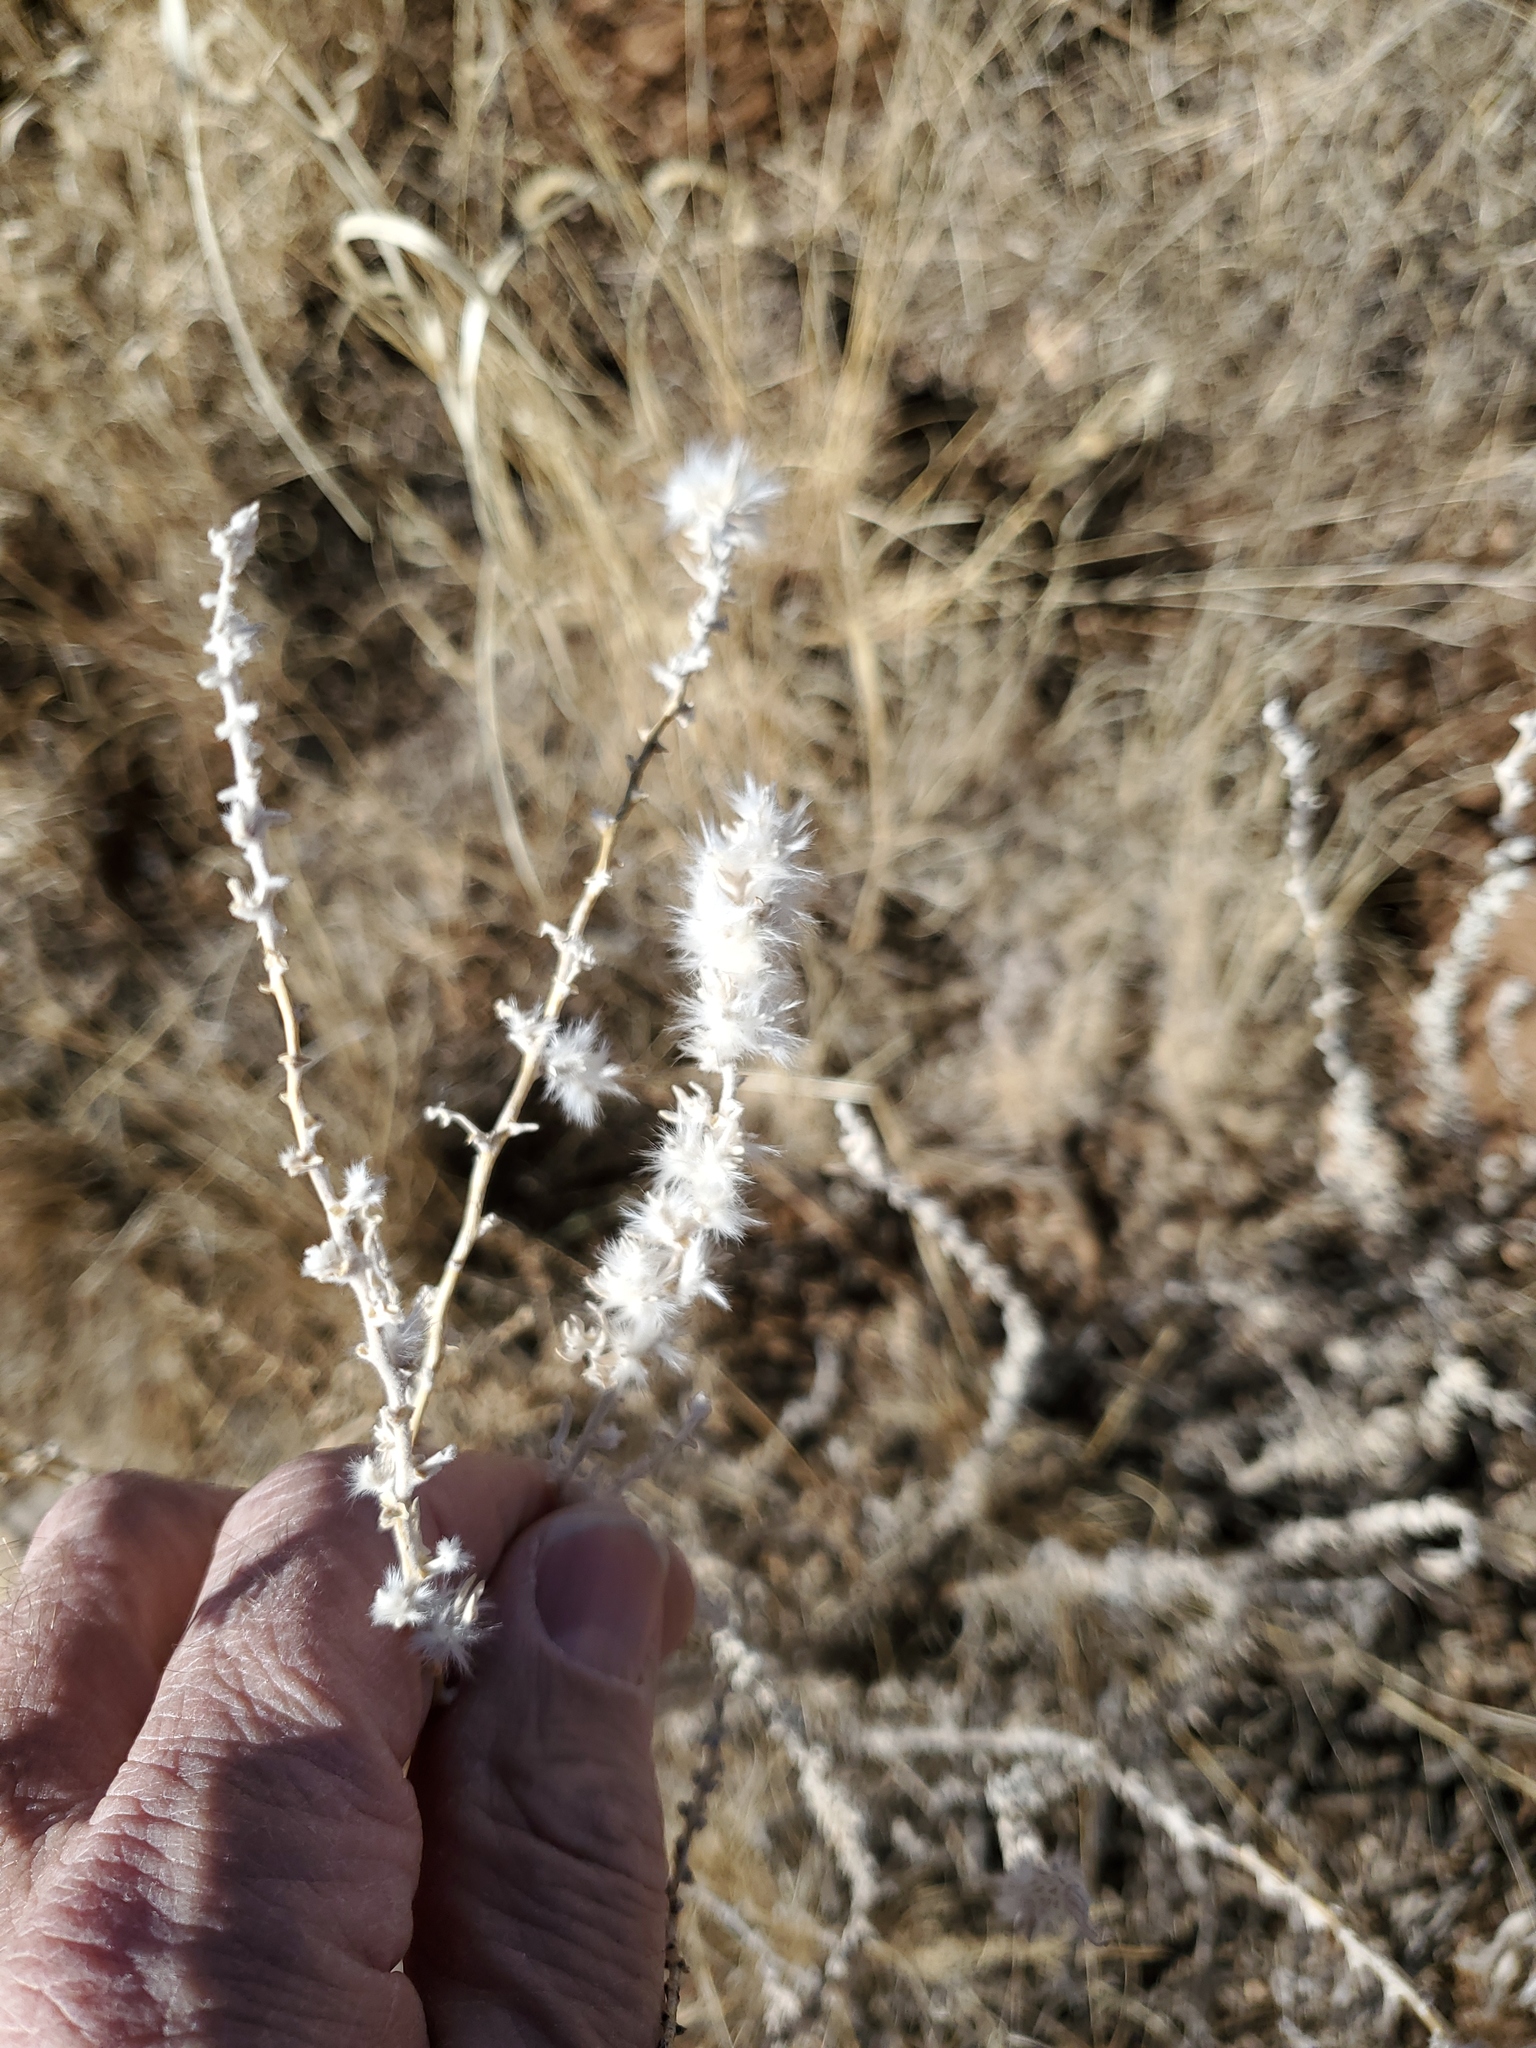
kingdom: Plantae
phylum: Tracheophyta
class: Magnoliopsida
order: Caryophyllales
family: Amaranthaceae
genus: Krascheninnikovia
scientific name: Krascheninnikovia lanata
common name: Winterfat
